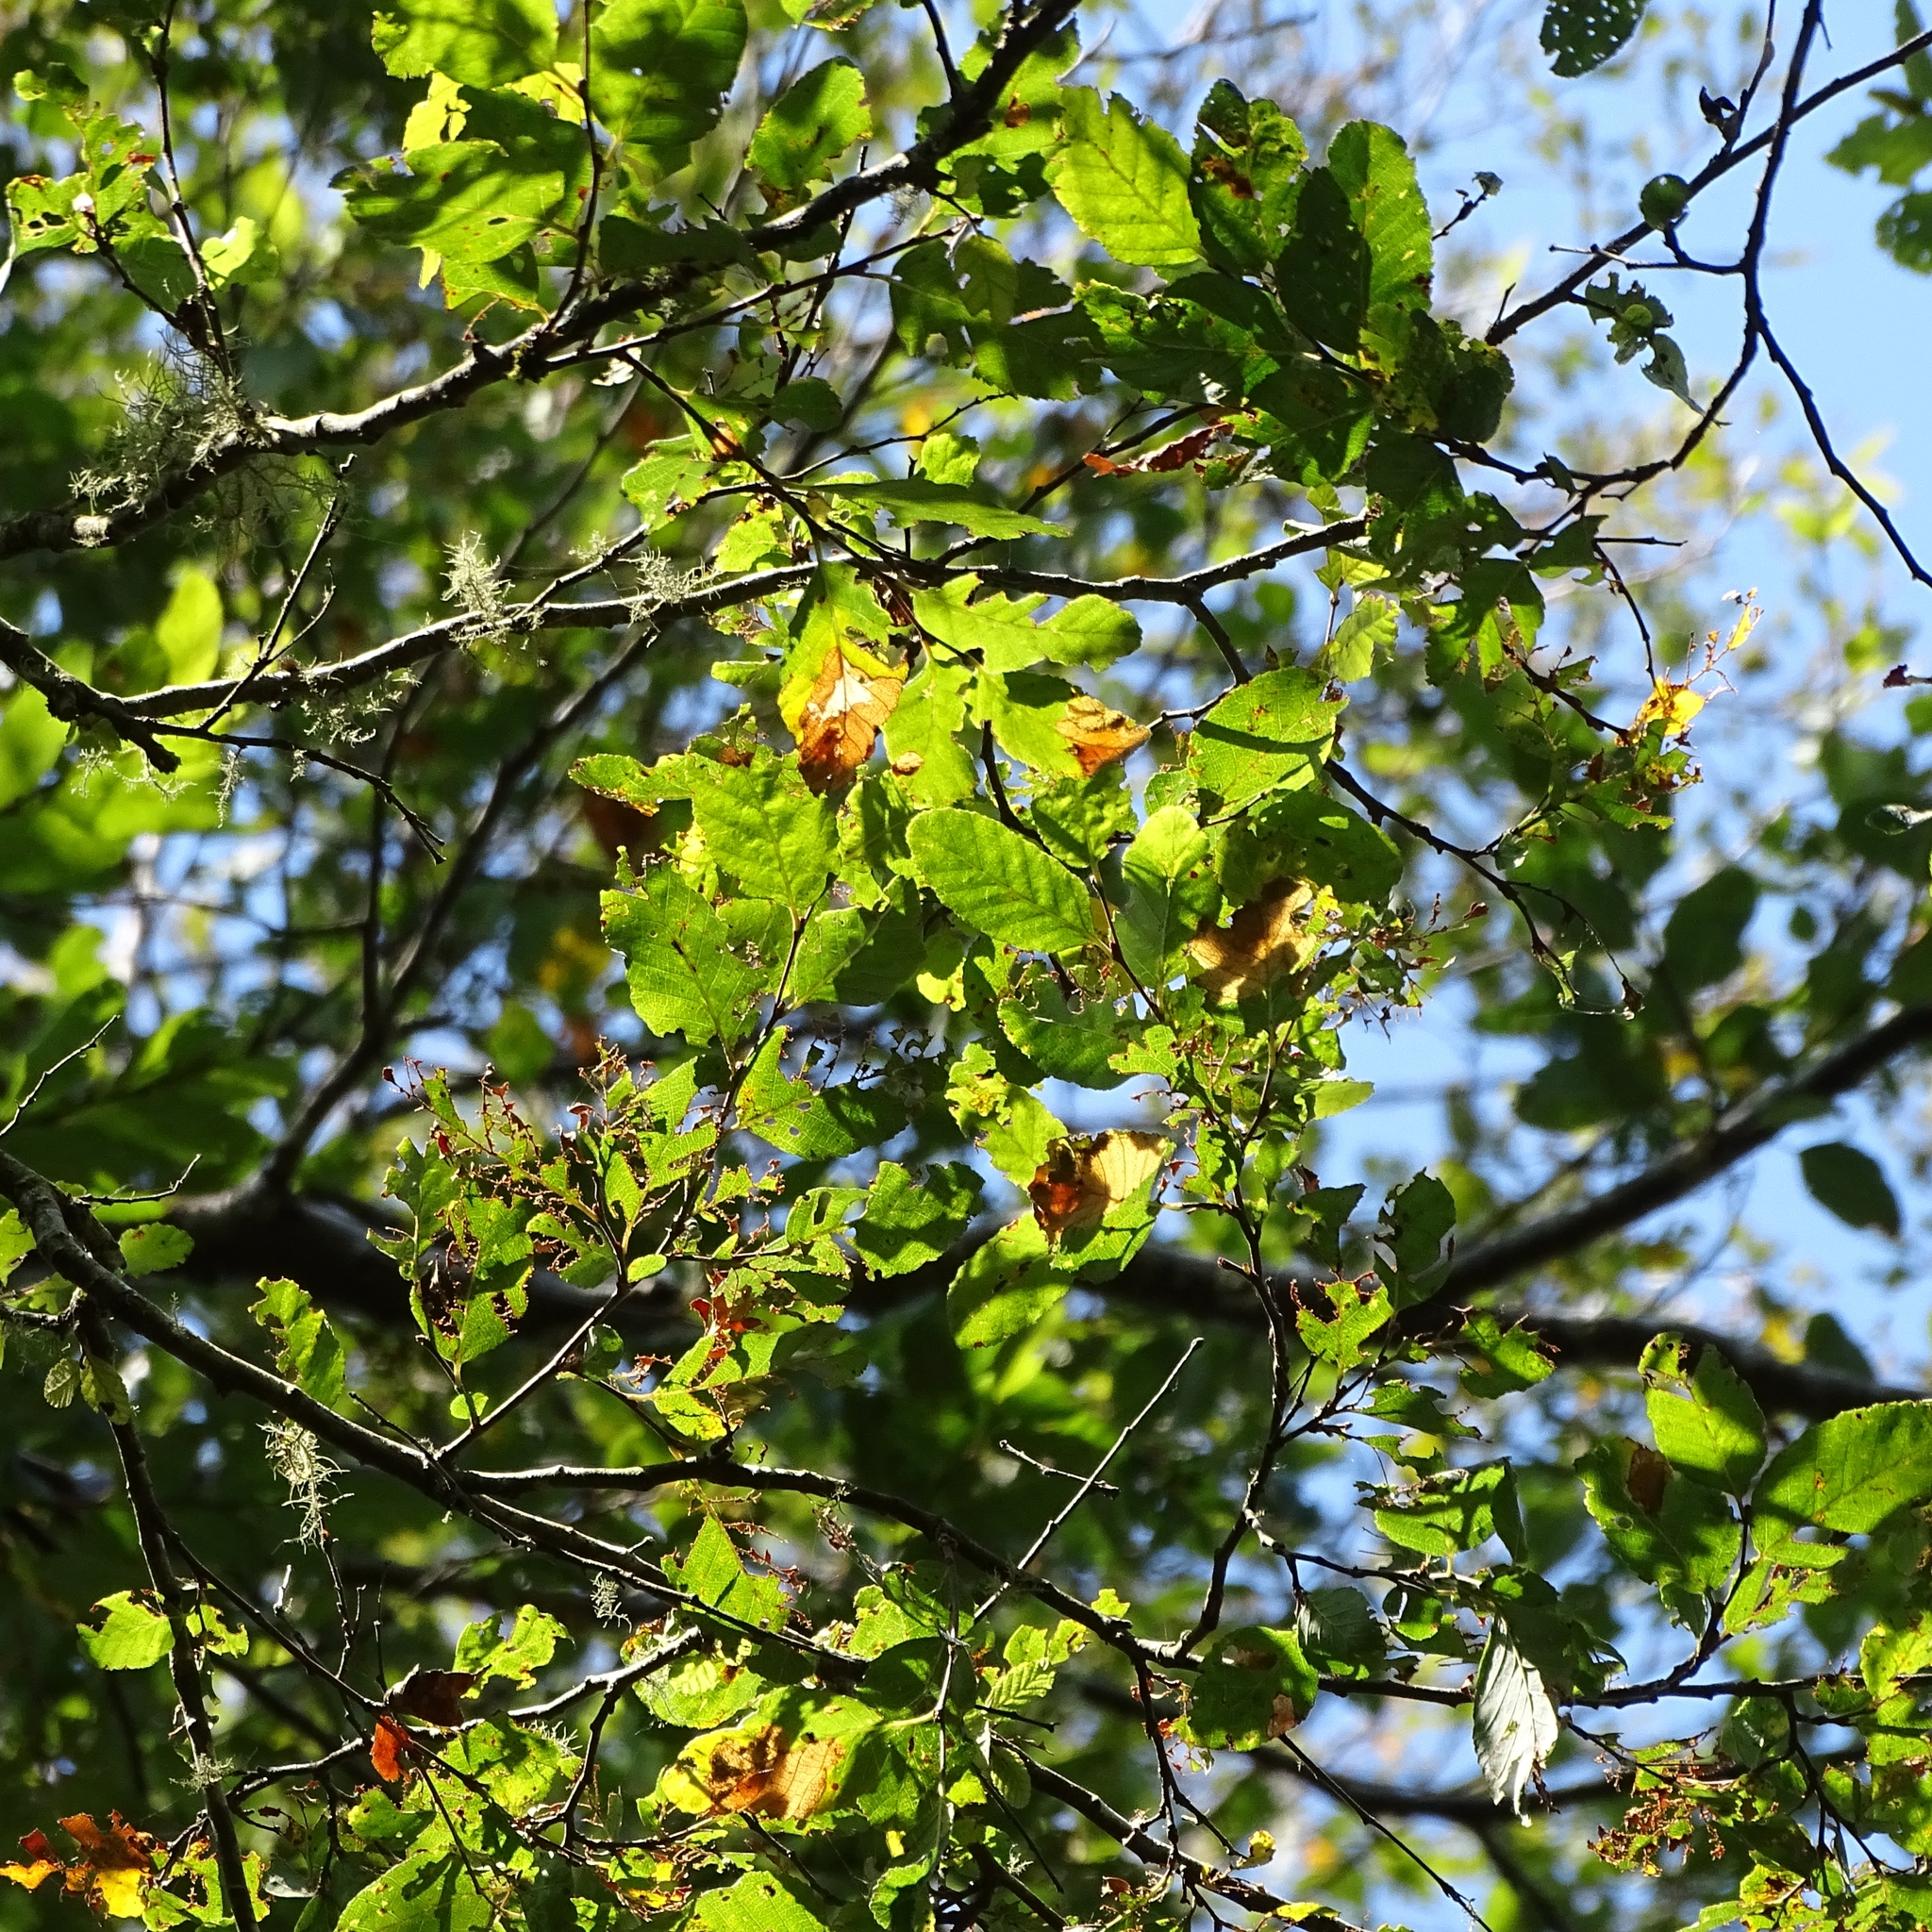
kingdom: Plantae
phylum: Tracheophyta
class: Magnoliopsida
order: Fagales
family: Nothofagaceae
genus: Nothofagus
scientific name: Nothofagus obliqua
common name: Roble beech
